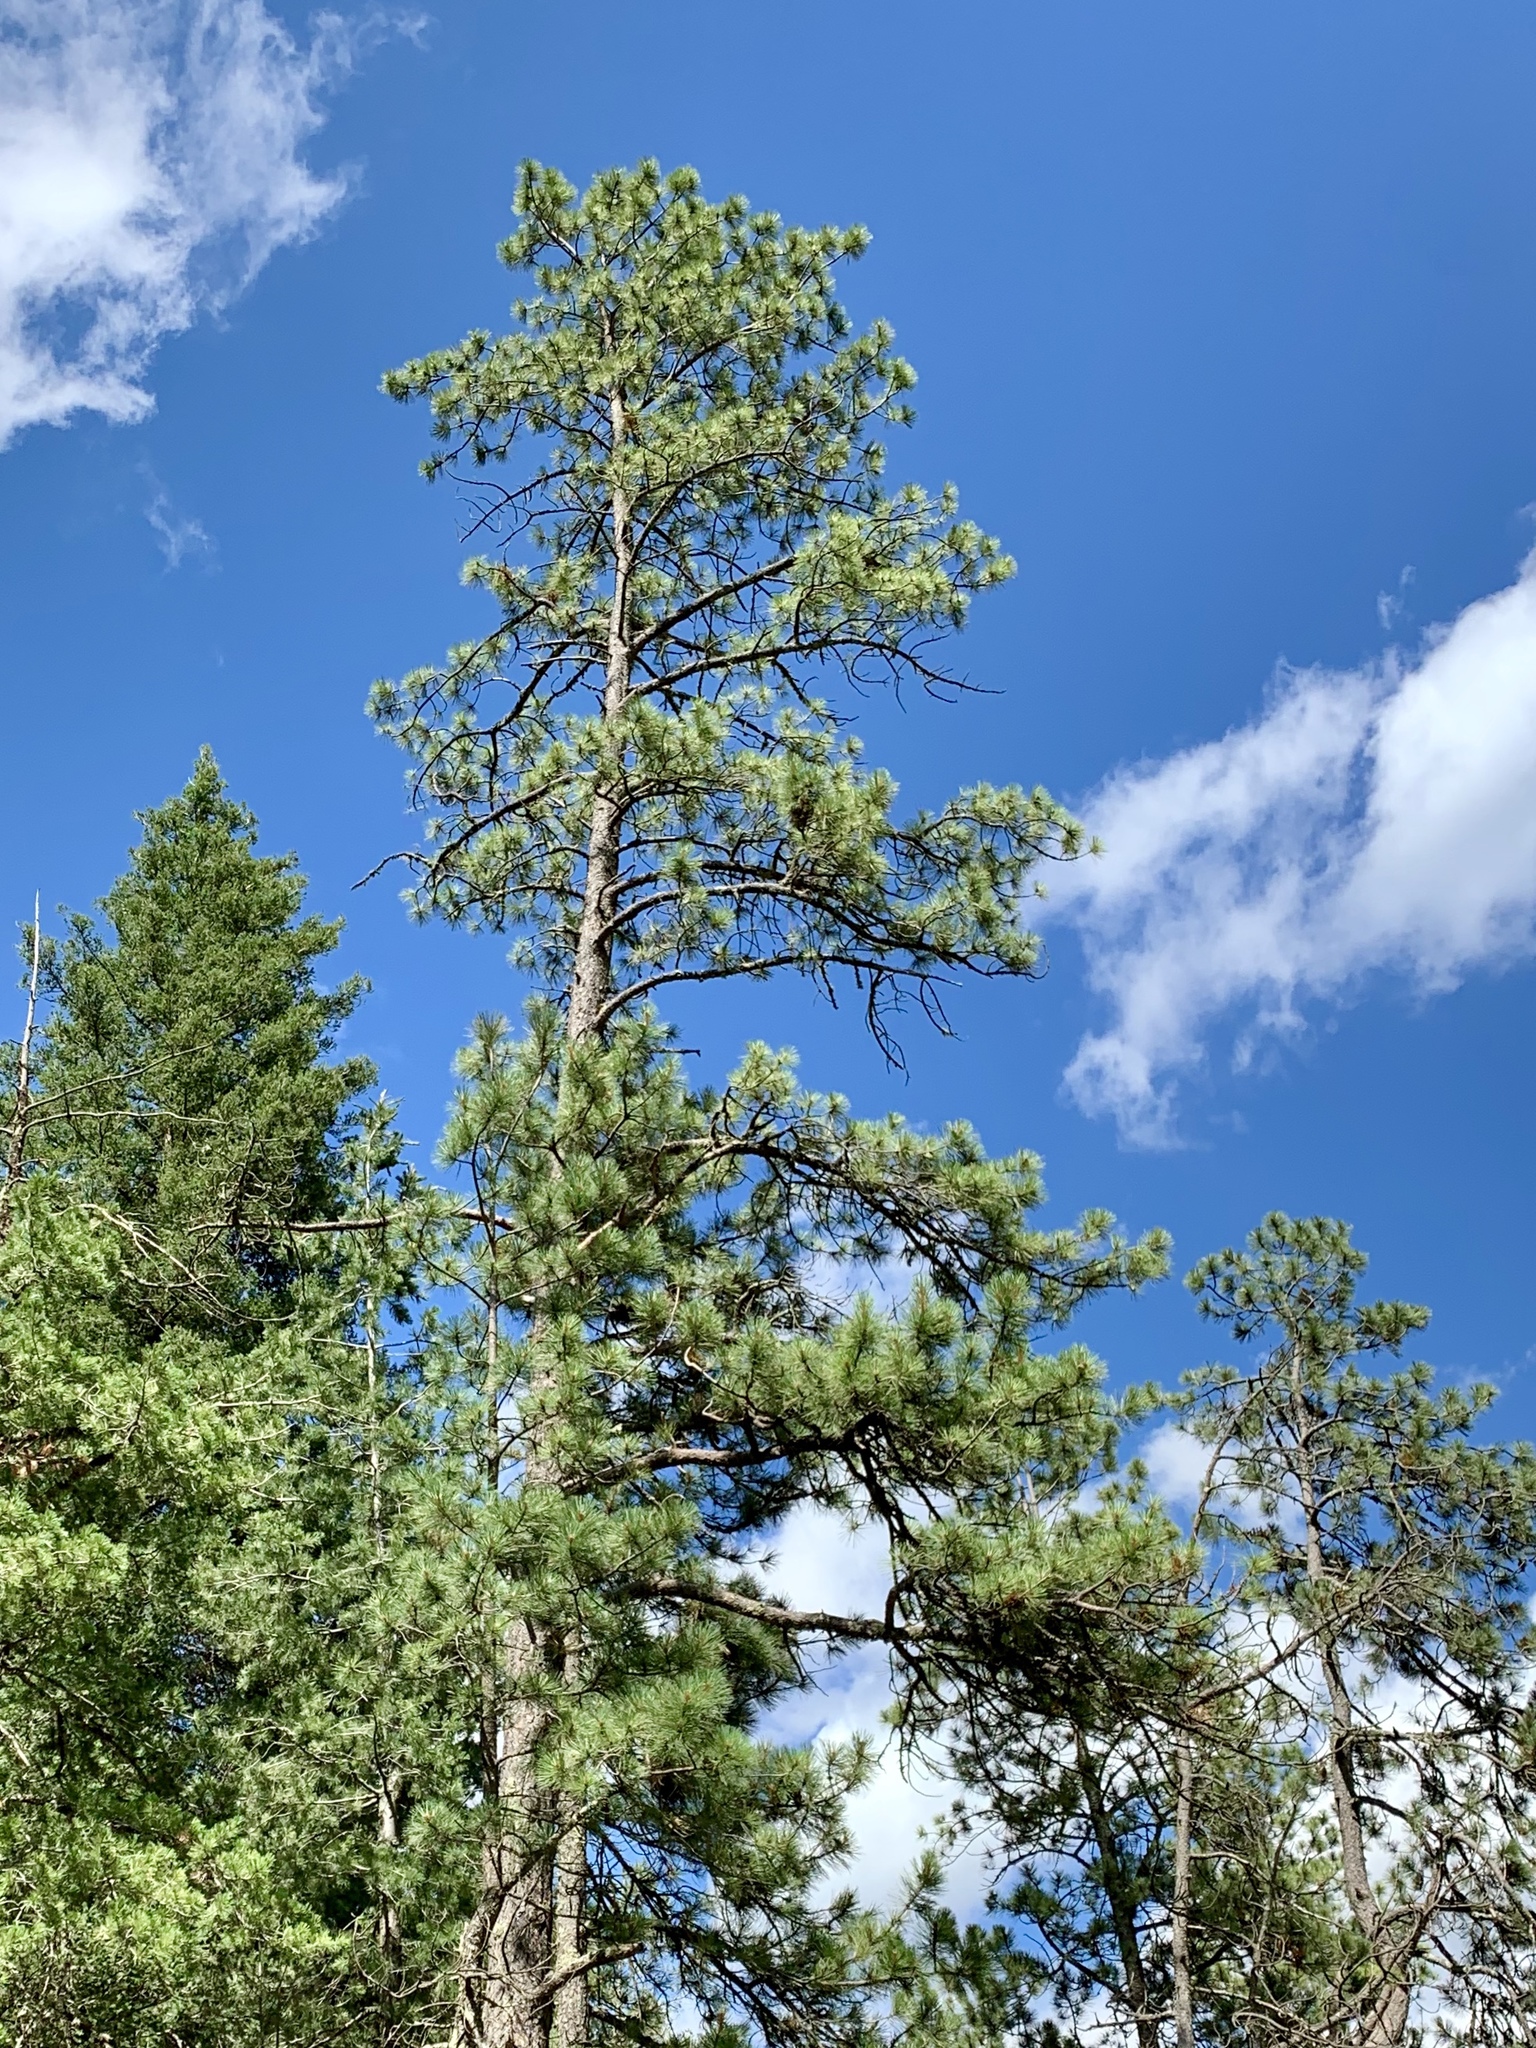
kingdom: Plantae
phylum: Tracheophyta
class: Pinopsida
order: Pinales
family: Pinaceae
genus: Pinus
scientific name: Pinus ponderosa
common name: Western yellow-pine
